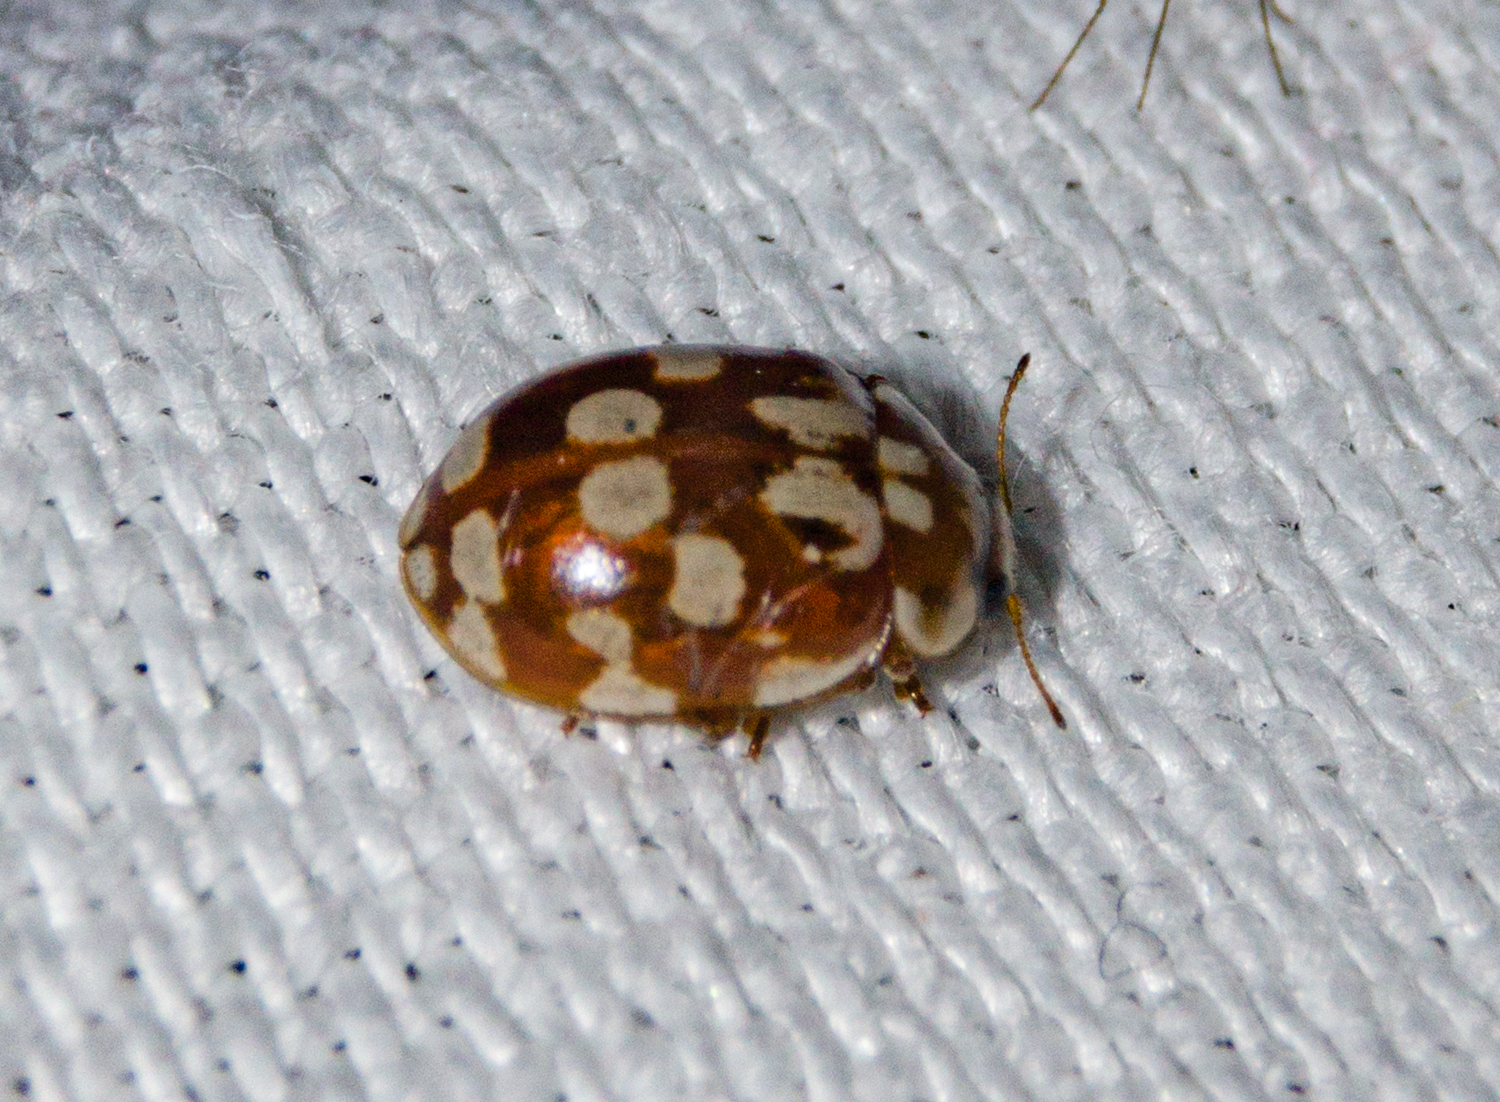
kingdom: Animalia
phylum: Arthropoda
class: Insecta
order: Coleoptera
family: Coccinellidae
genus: Myrrha
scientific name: Myrrha octodecimguttata
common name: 18-spot ladybird
